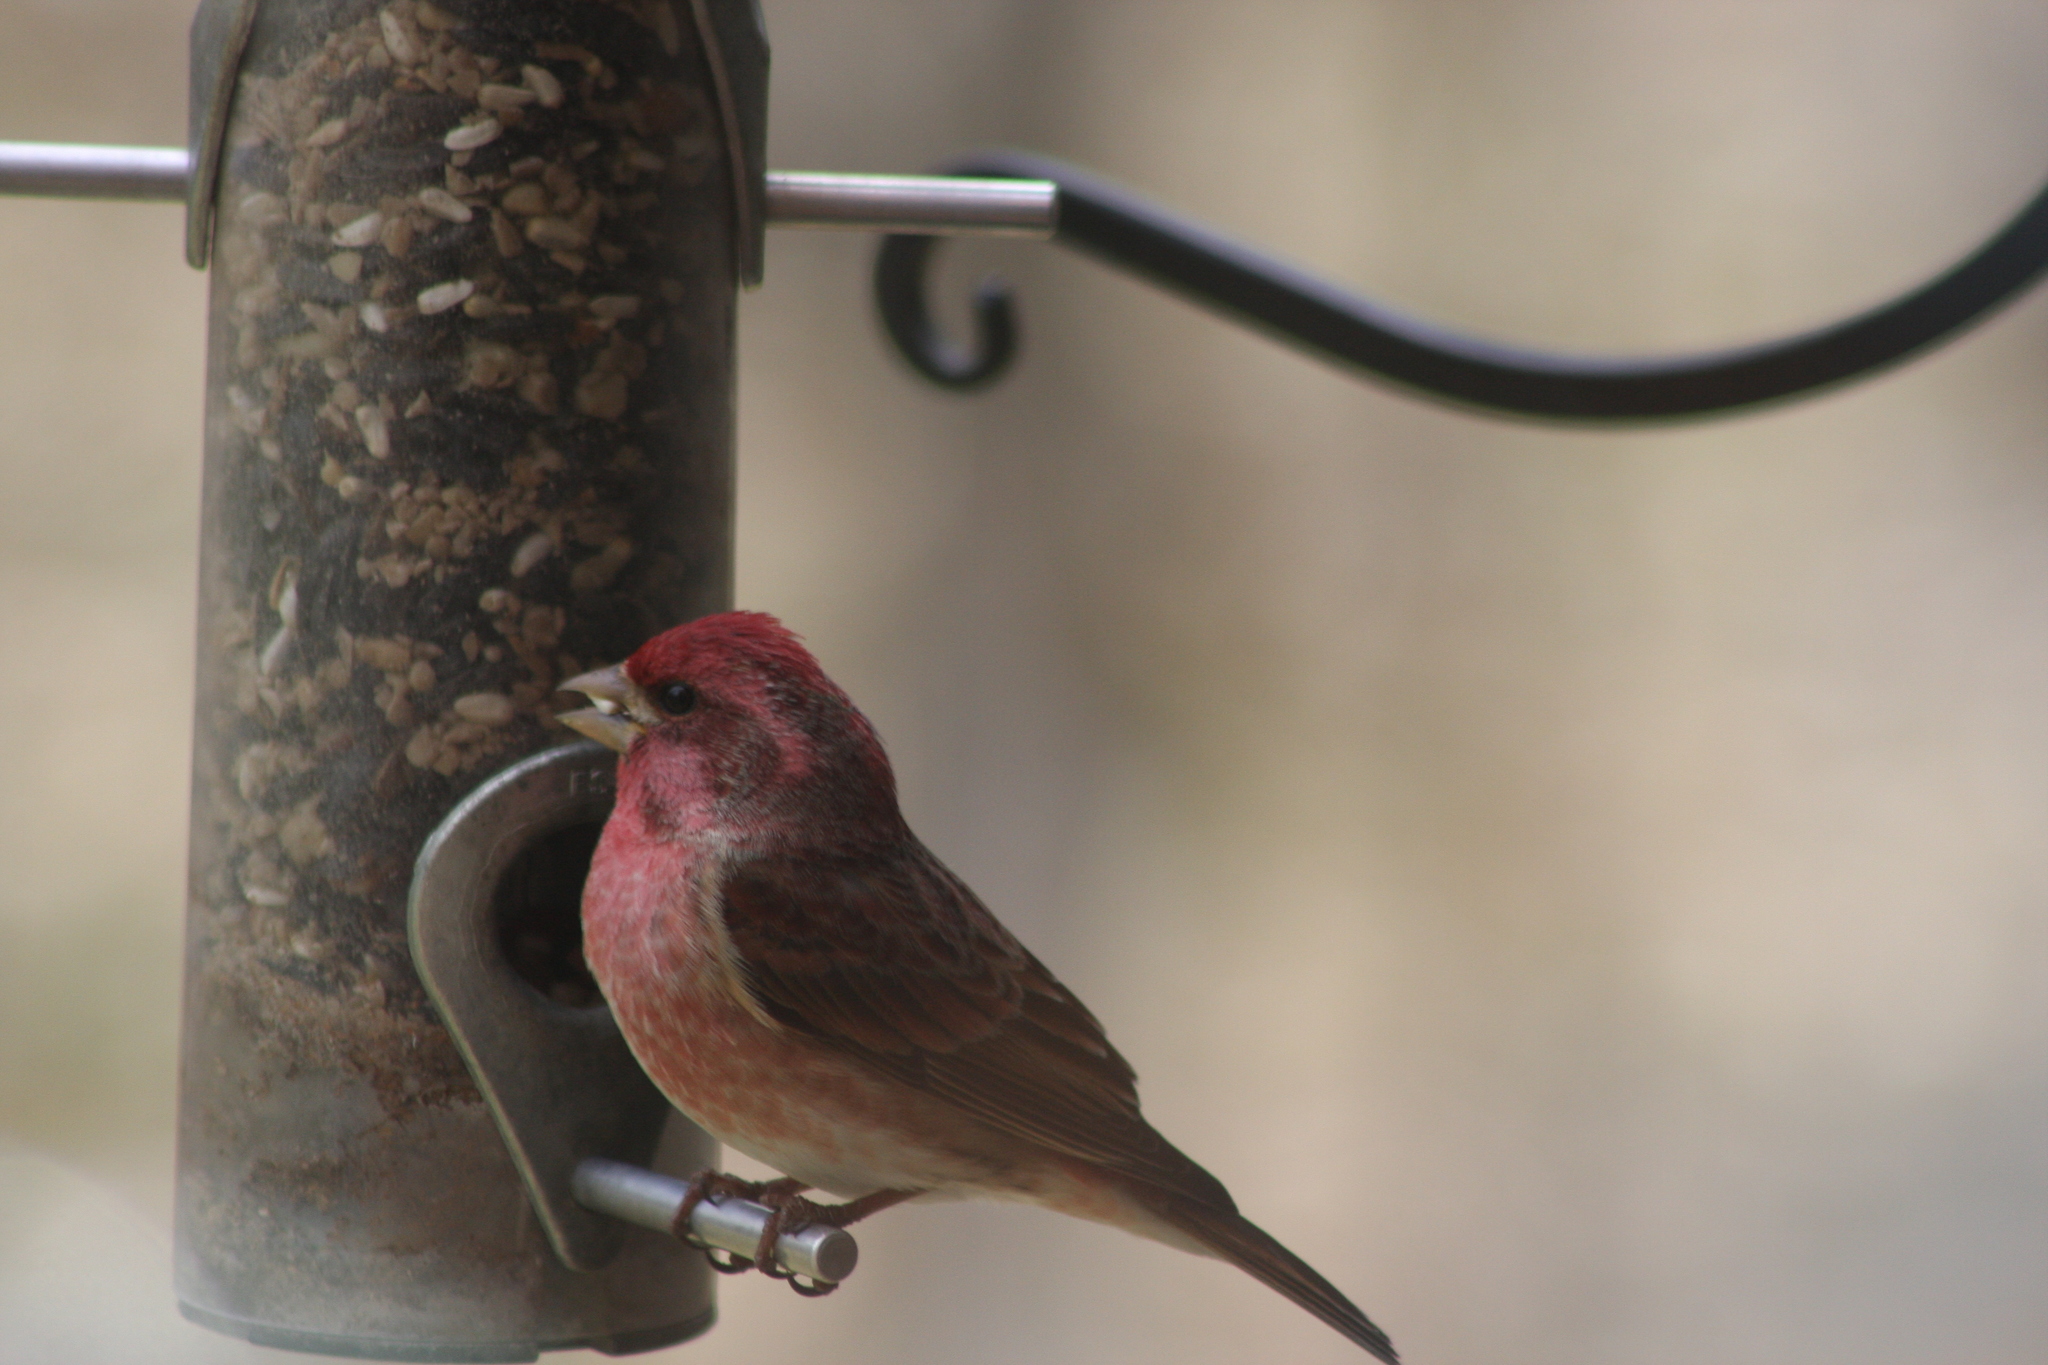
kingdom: Animalia
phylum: Chordata
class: Aves
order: Passeriformes
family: Fringillidae
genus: Haemorhous
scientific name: Haemorhous purpureus
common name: Purple finch
